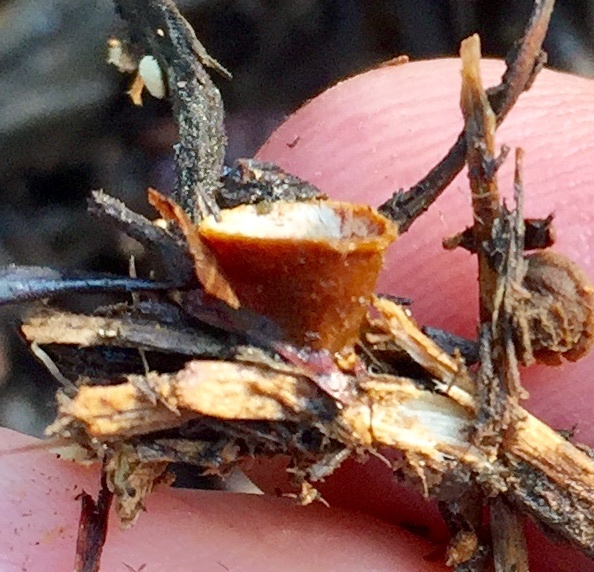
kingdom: Fungi
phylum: Basidiomycota
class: Agaricomycetes
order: Agaricales
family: Nidulariaceae
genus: Crucibulum
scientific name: Crucibulum laeve
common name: Common bird's nest
